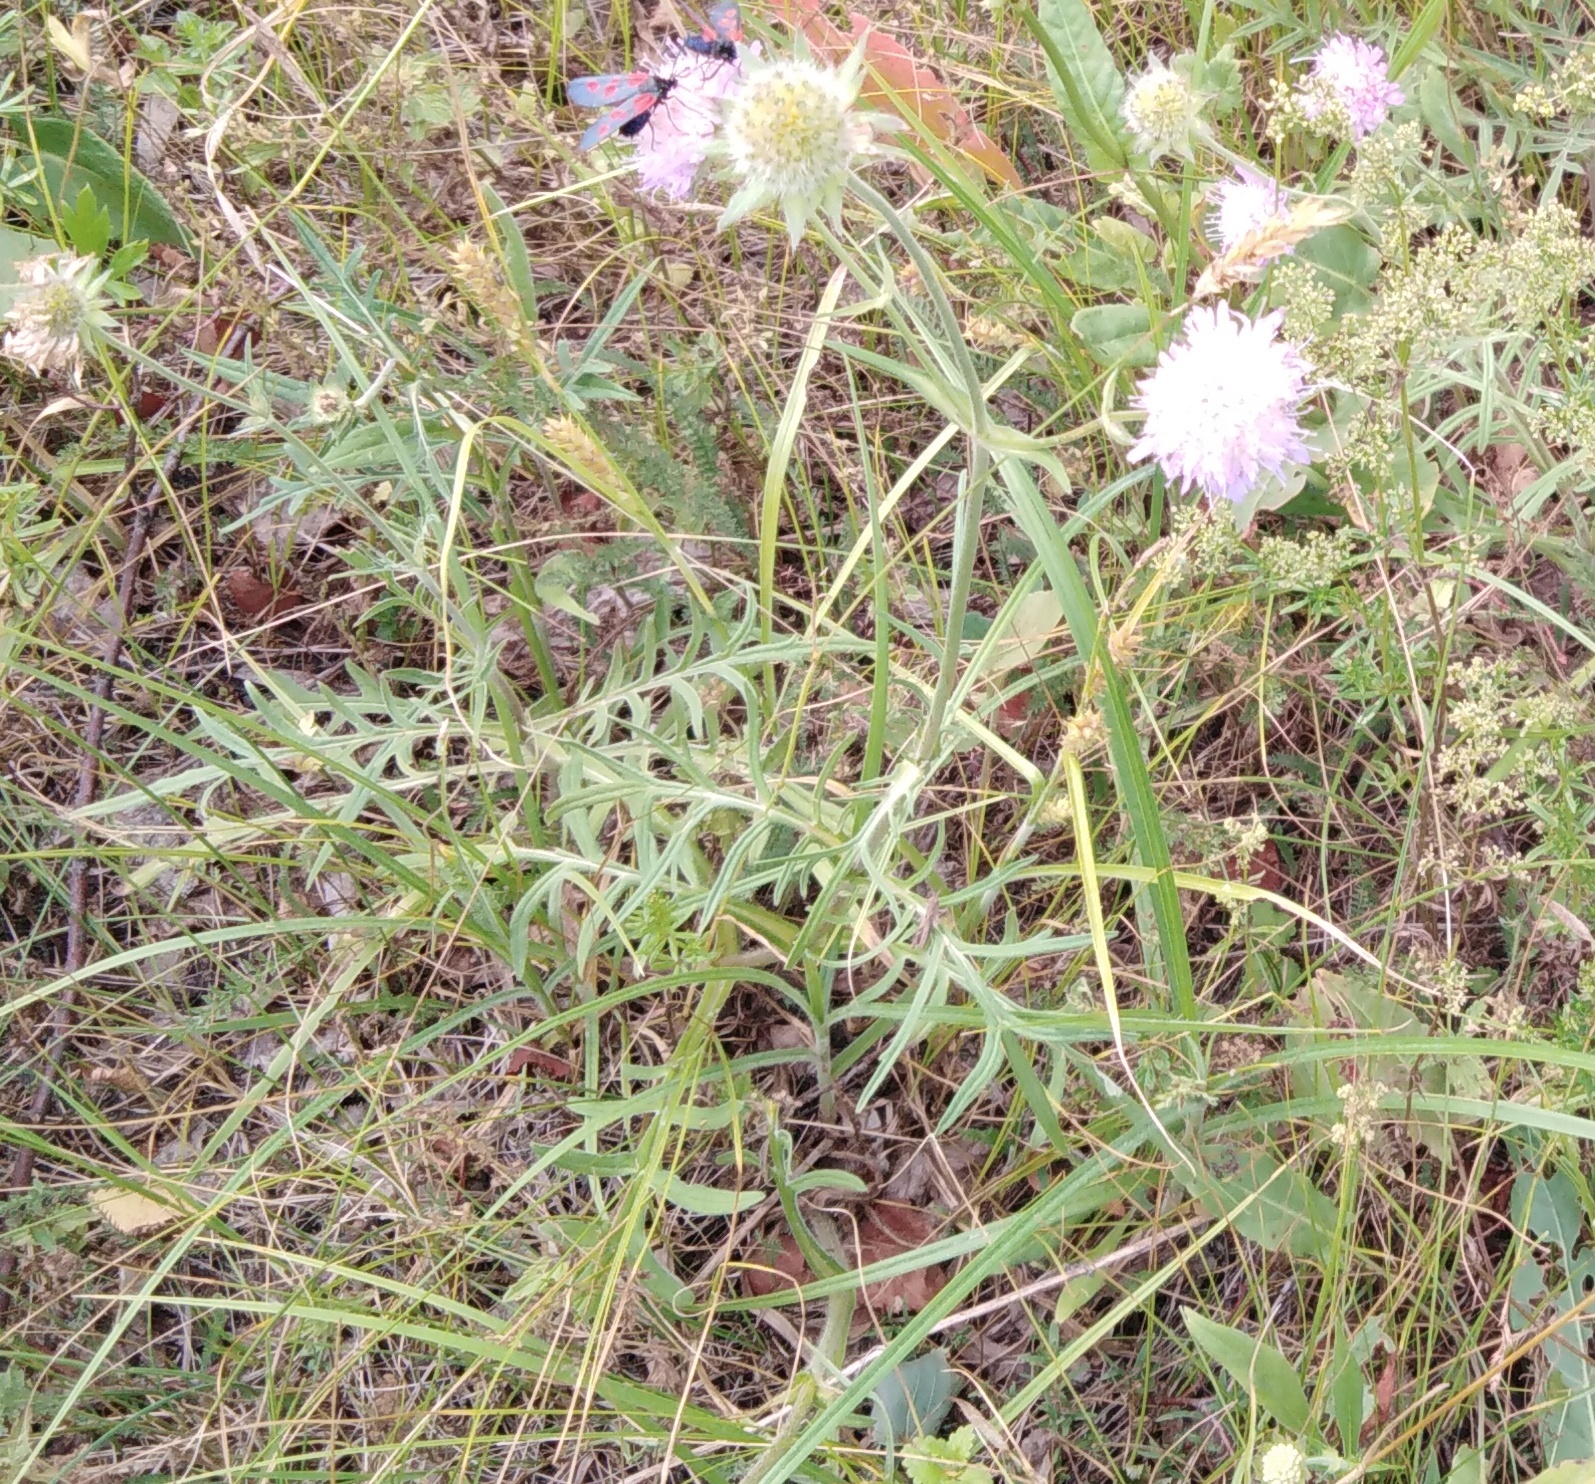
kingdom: Plantae
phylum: Tracheophyta
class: Magnoliopsida
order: Dipsacales
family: Caprifoliaceae
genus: Knautia
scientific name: Knautia arvensis
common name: Field scabiosa
